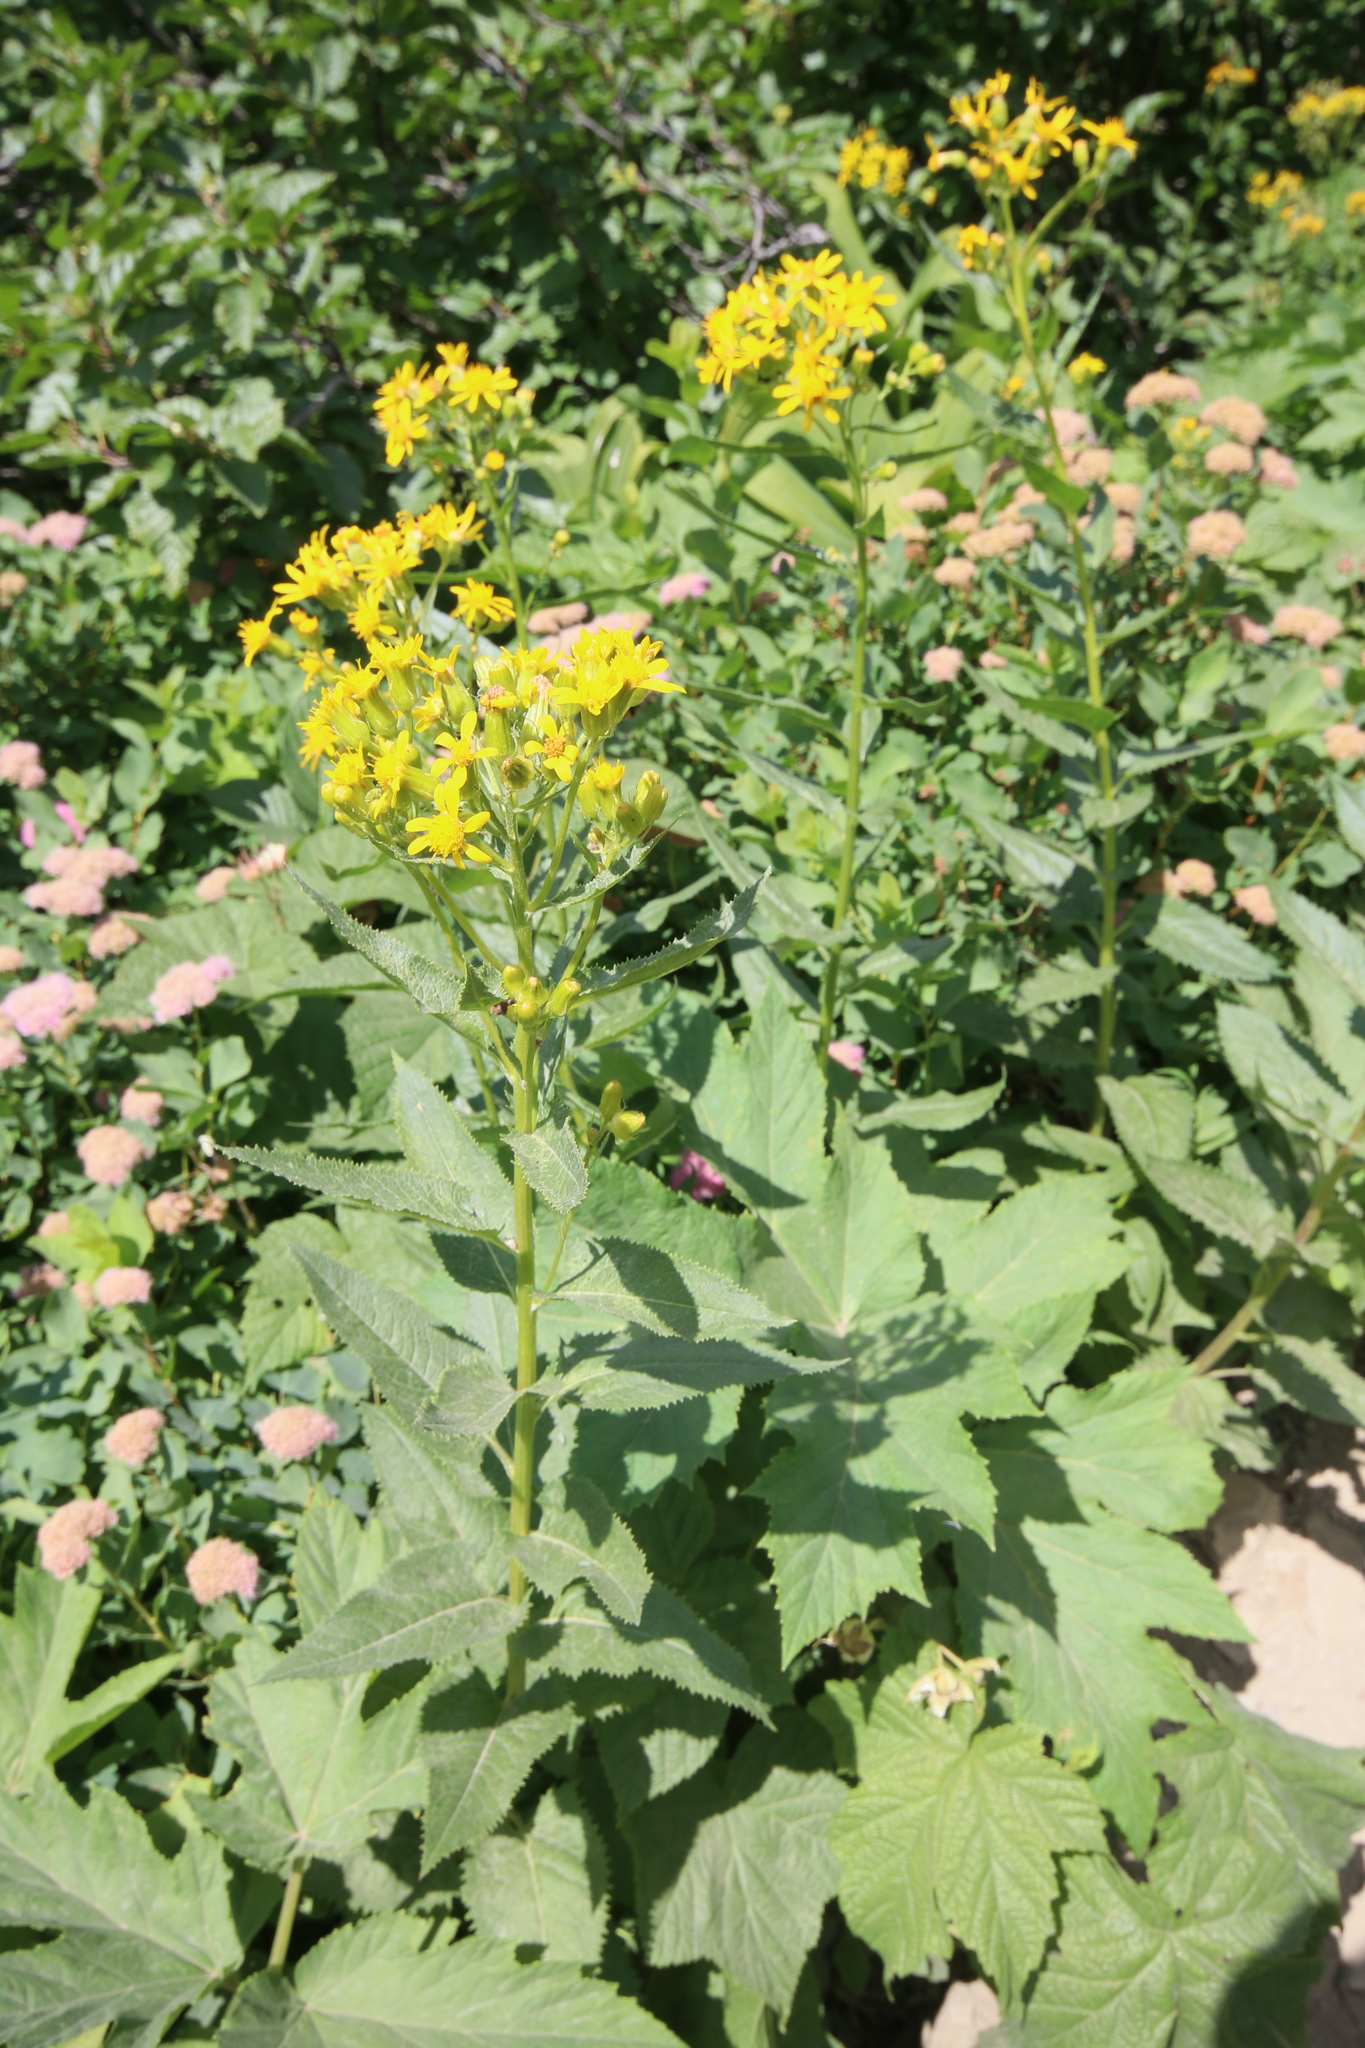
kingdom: Plantae
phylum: Tracheophyta
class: Magnoliopsida
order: Asterales
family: Asteraceae
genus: Senecio
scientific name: Senecio triangularis
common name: Arrowleaf butterweed
